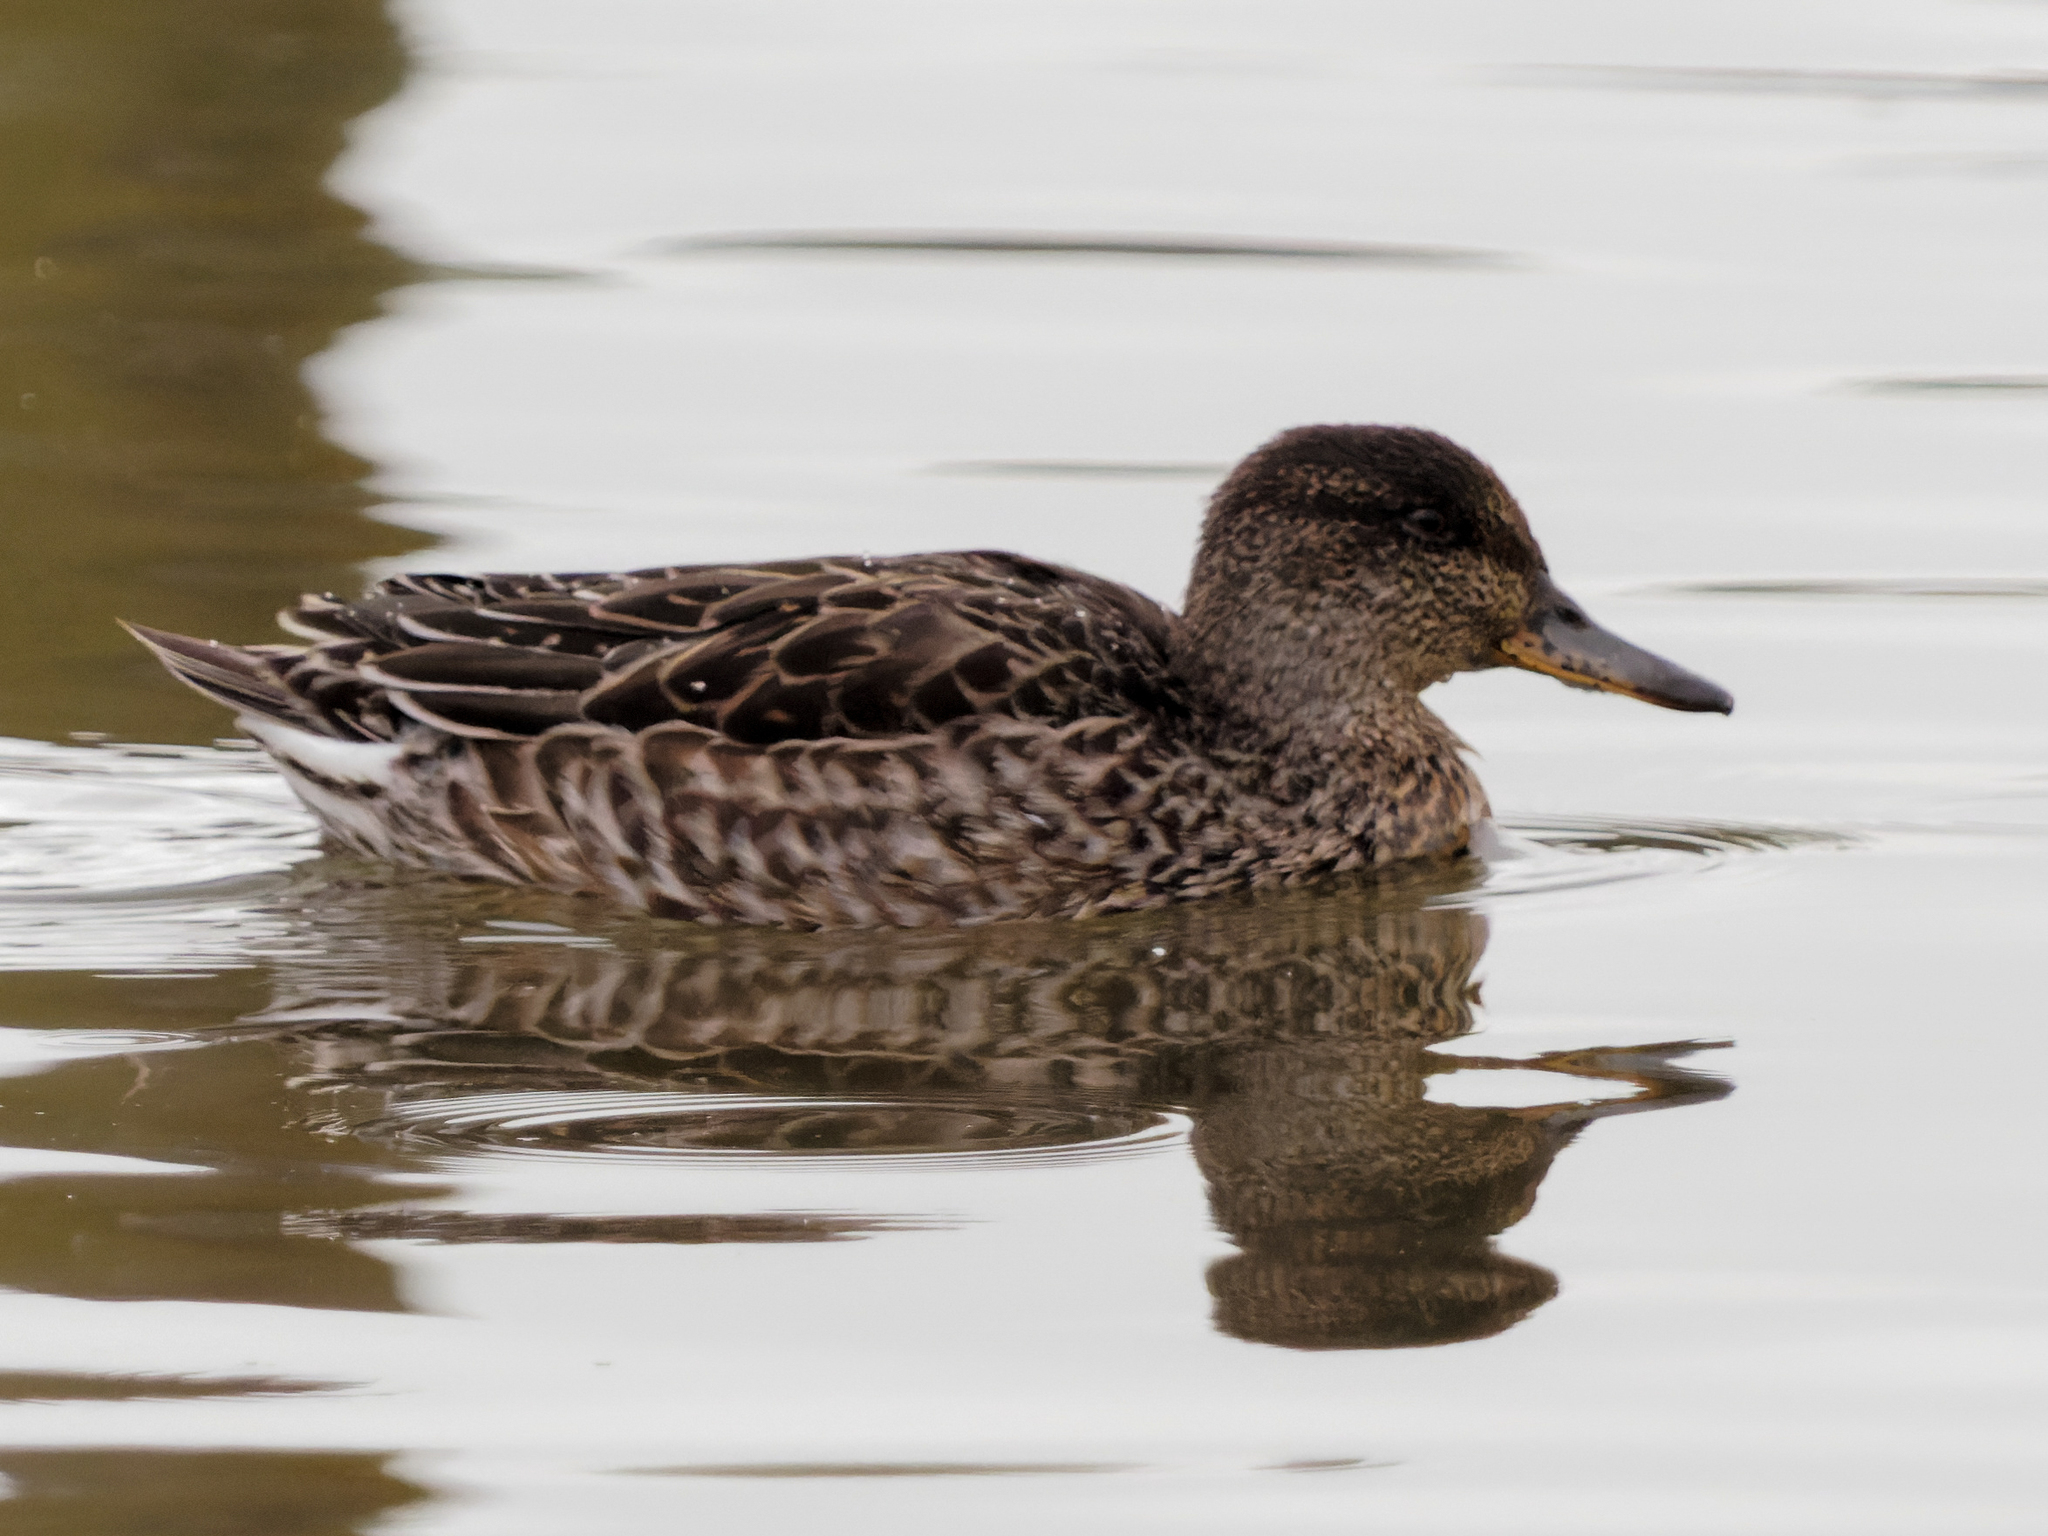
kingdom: Animalia
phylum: Chordata
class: Aves
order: Anseriformes
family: Anatidae
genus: Anas
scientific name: Anas crecca
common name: Eurasian teal
